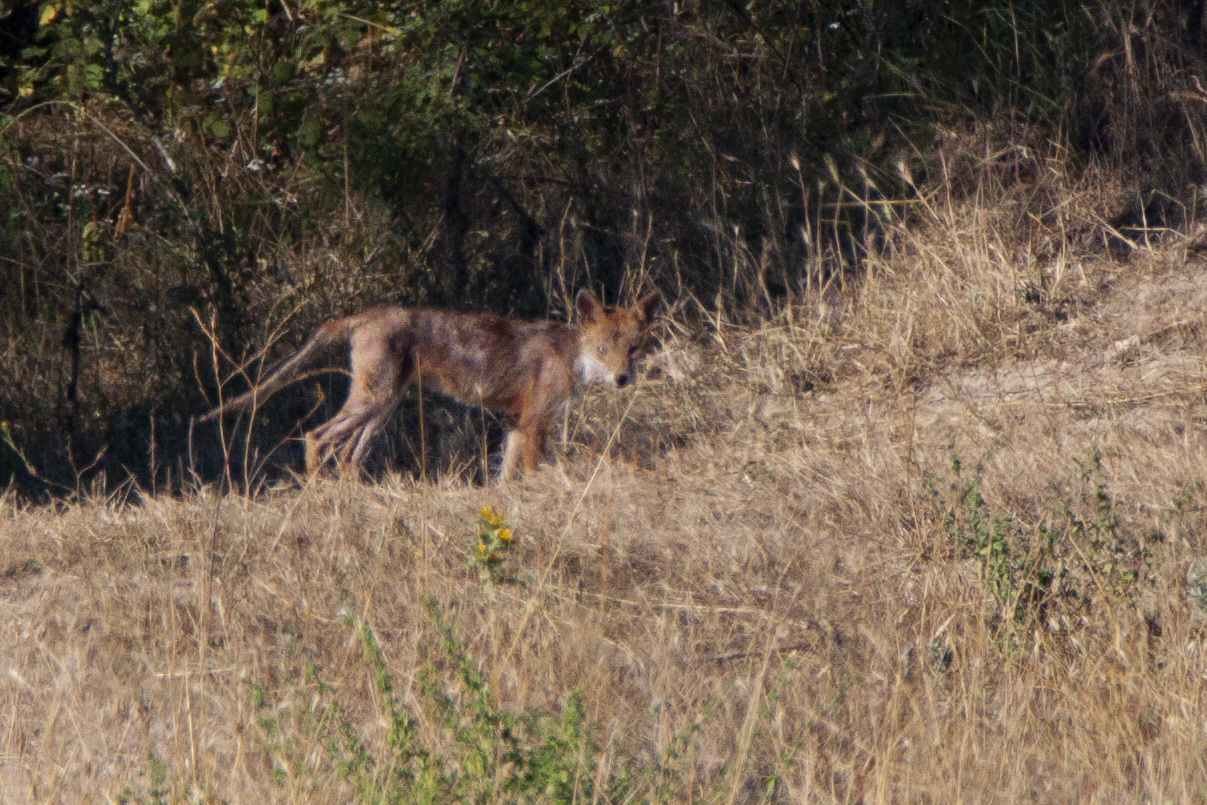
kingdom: Animalia
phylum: Chordata
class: Mammalia
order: Carnivora
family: Canidae
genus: Vulpes
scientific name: Vulpes vulpes
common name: Red fox
